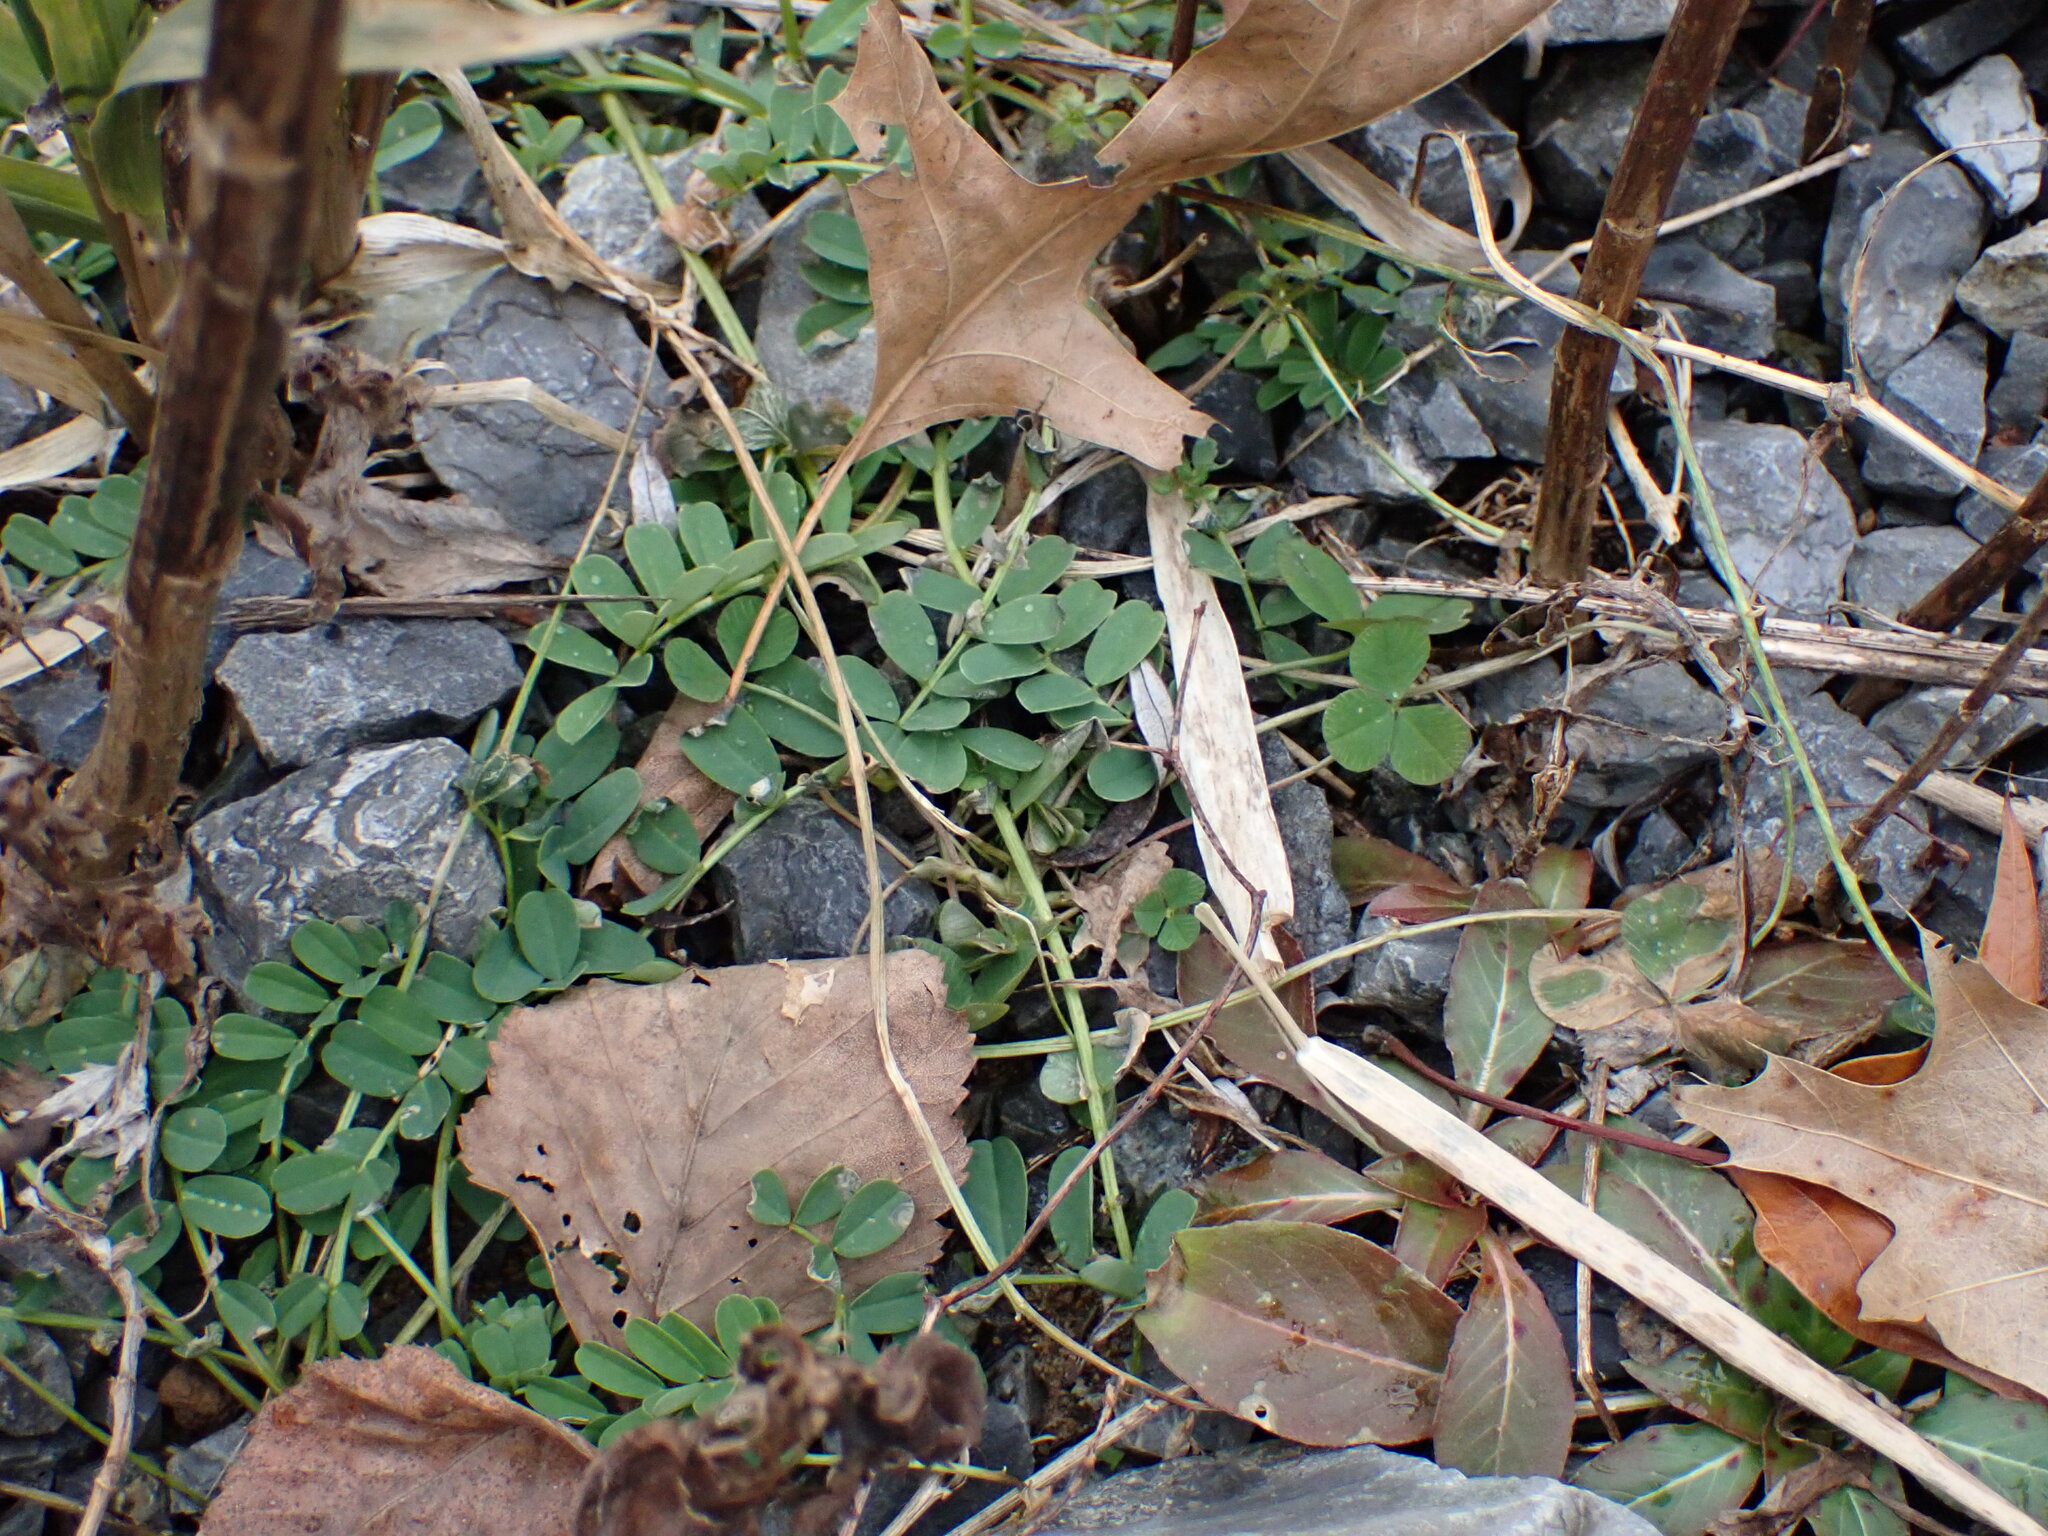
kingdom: Plantae
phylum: Tracheophyta
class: Magnoliopsida
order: Fabales
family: Fabaceae
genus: Coronilla
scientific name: Coronilla varia
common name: Crownvetch
